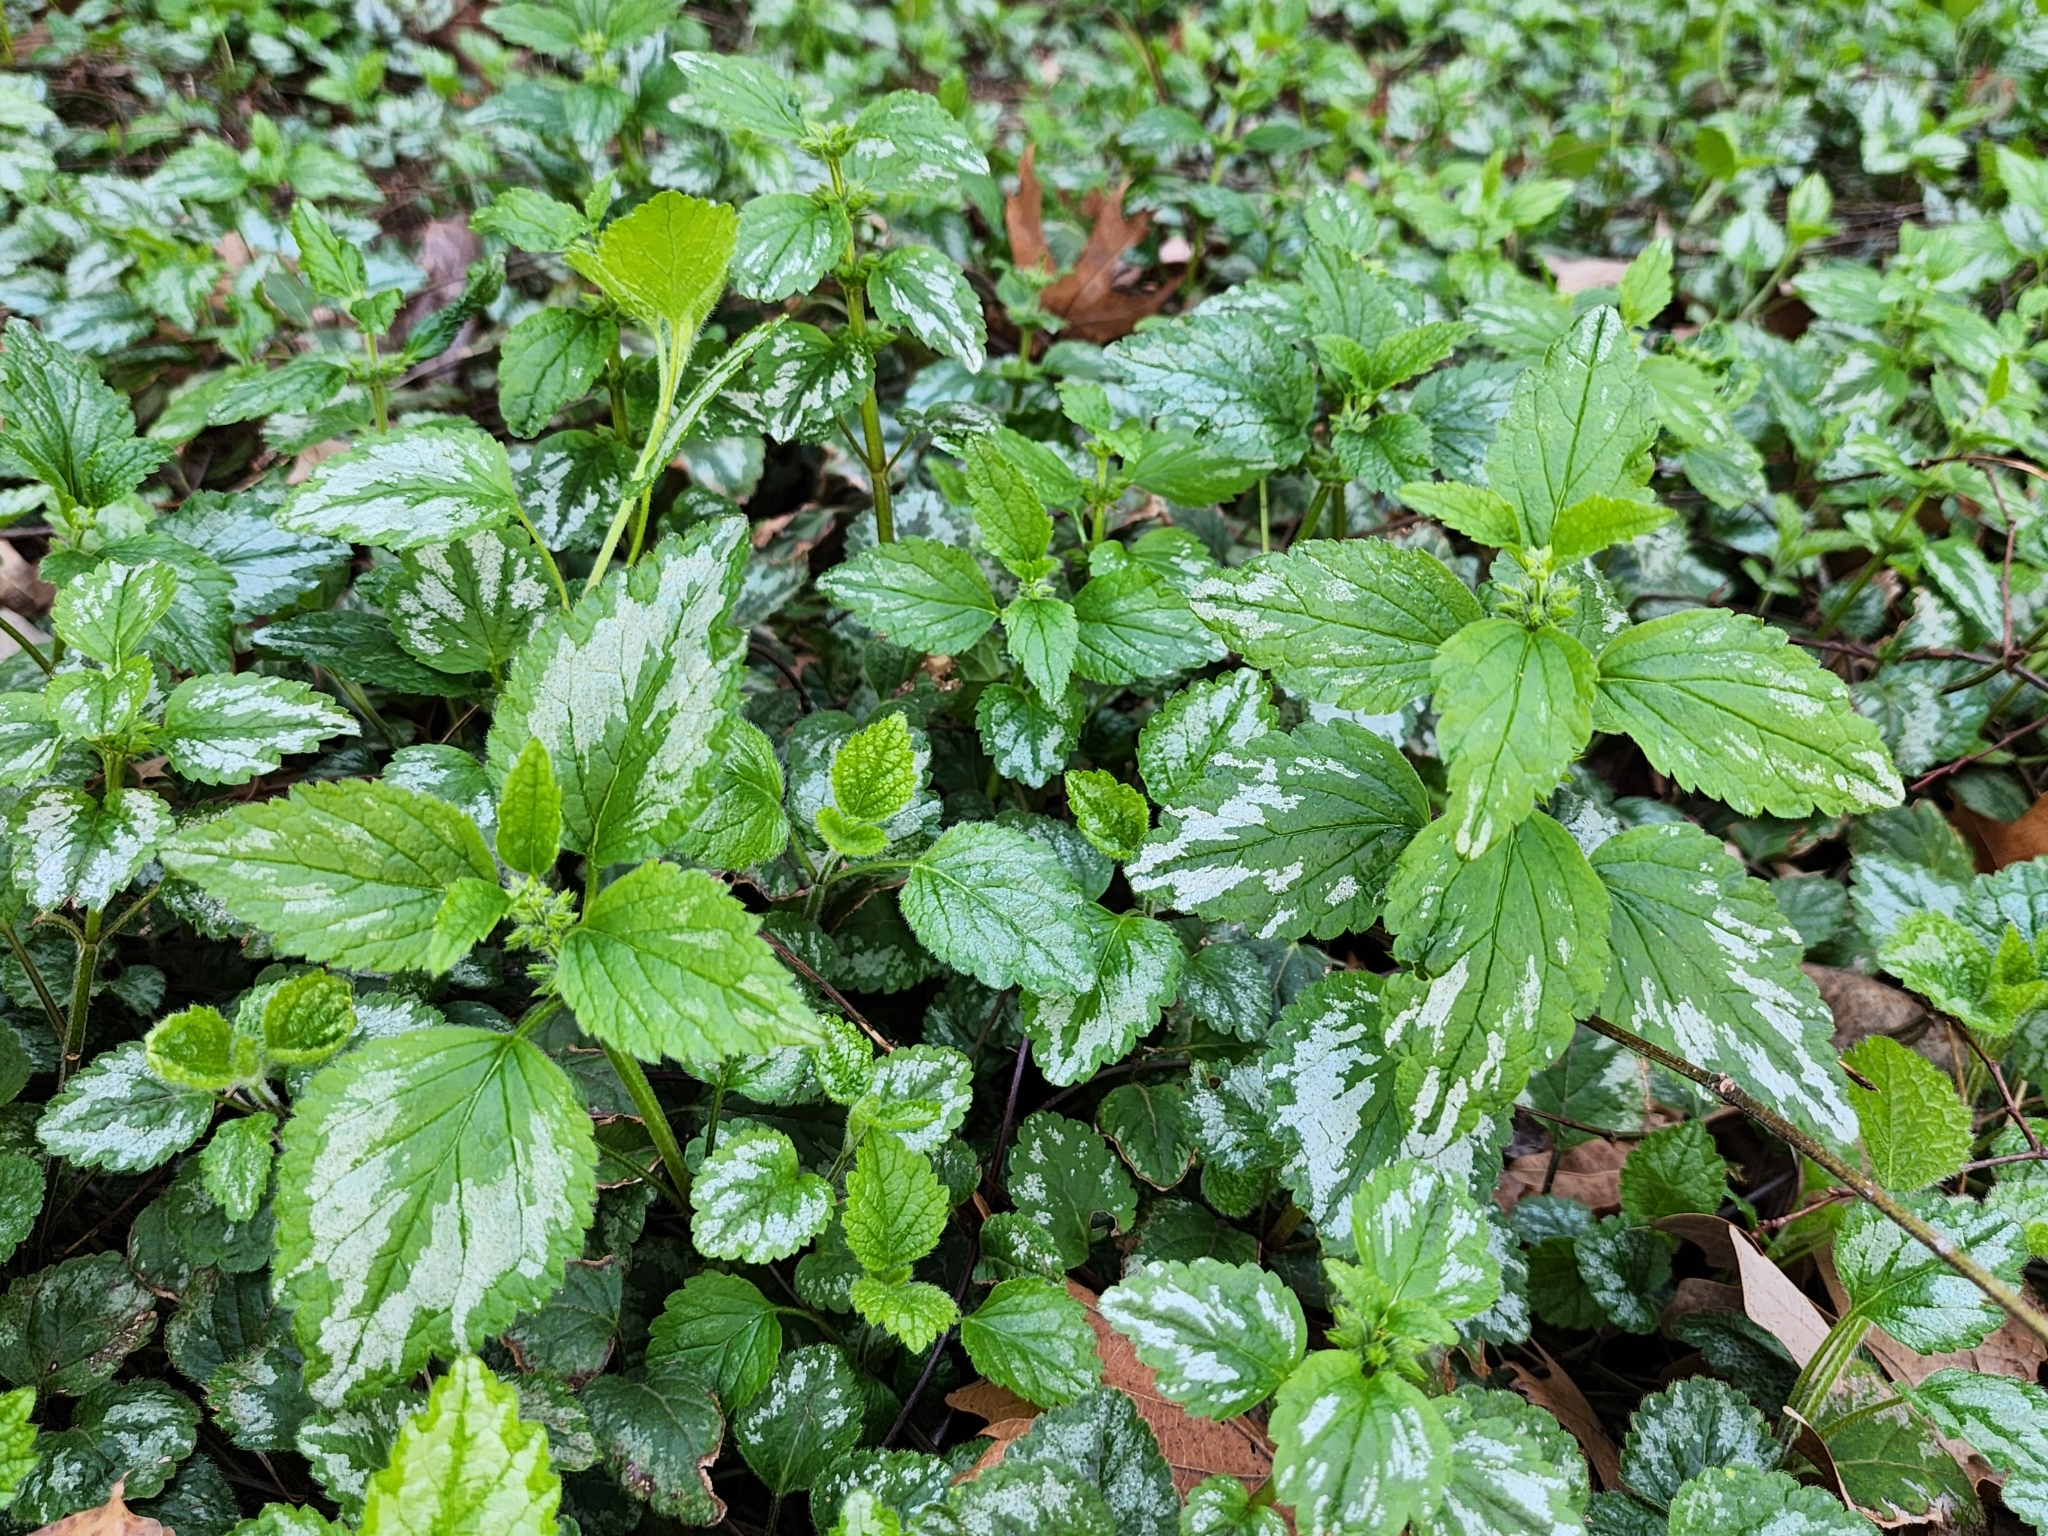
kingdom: Plantae
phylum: Tracheophyta
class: Magnoliopsida
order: Lamiales
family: Lamiaceae
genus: Lamium
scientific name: Lamium galeobdolon
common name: Yellow archangel
